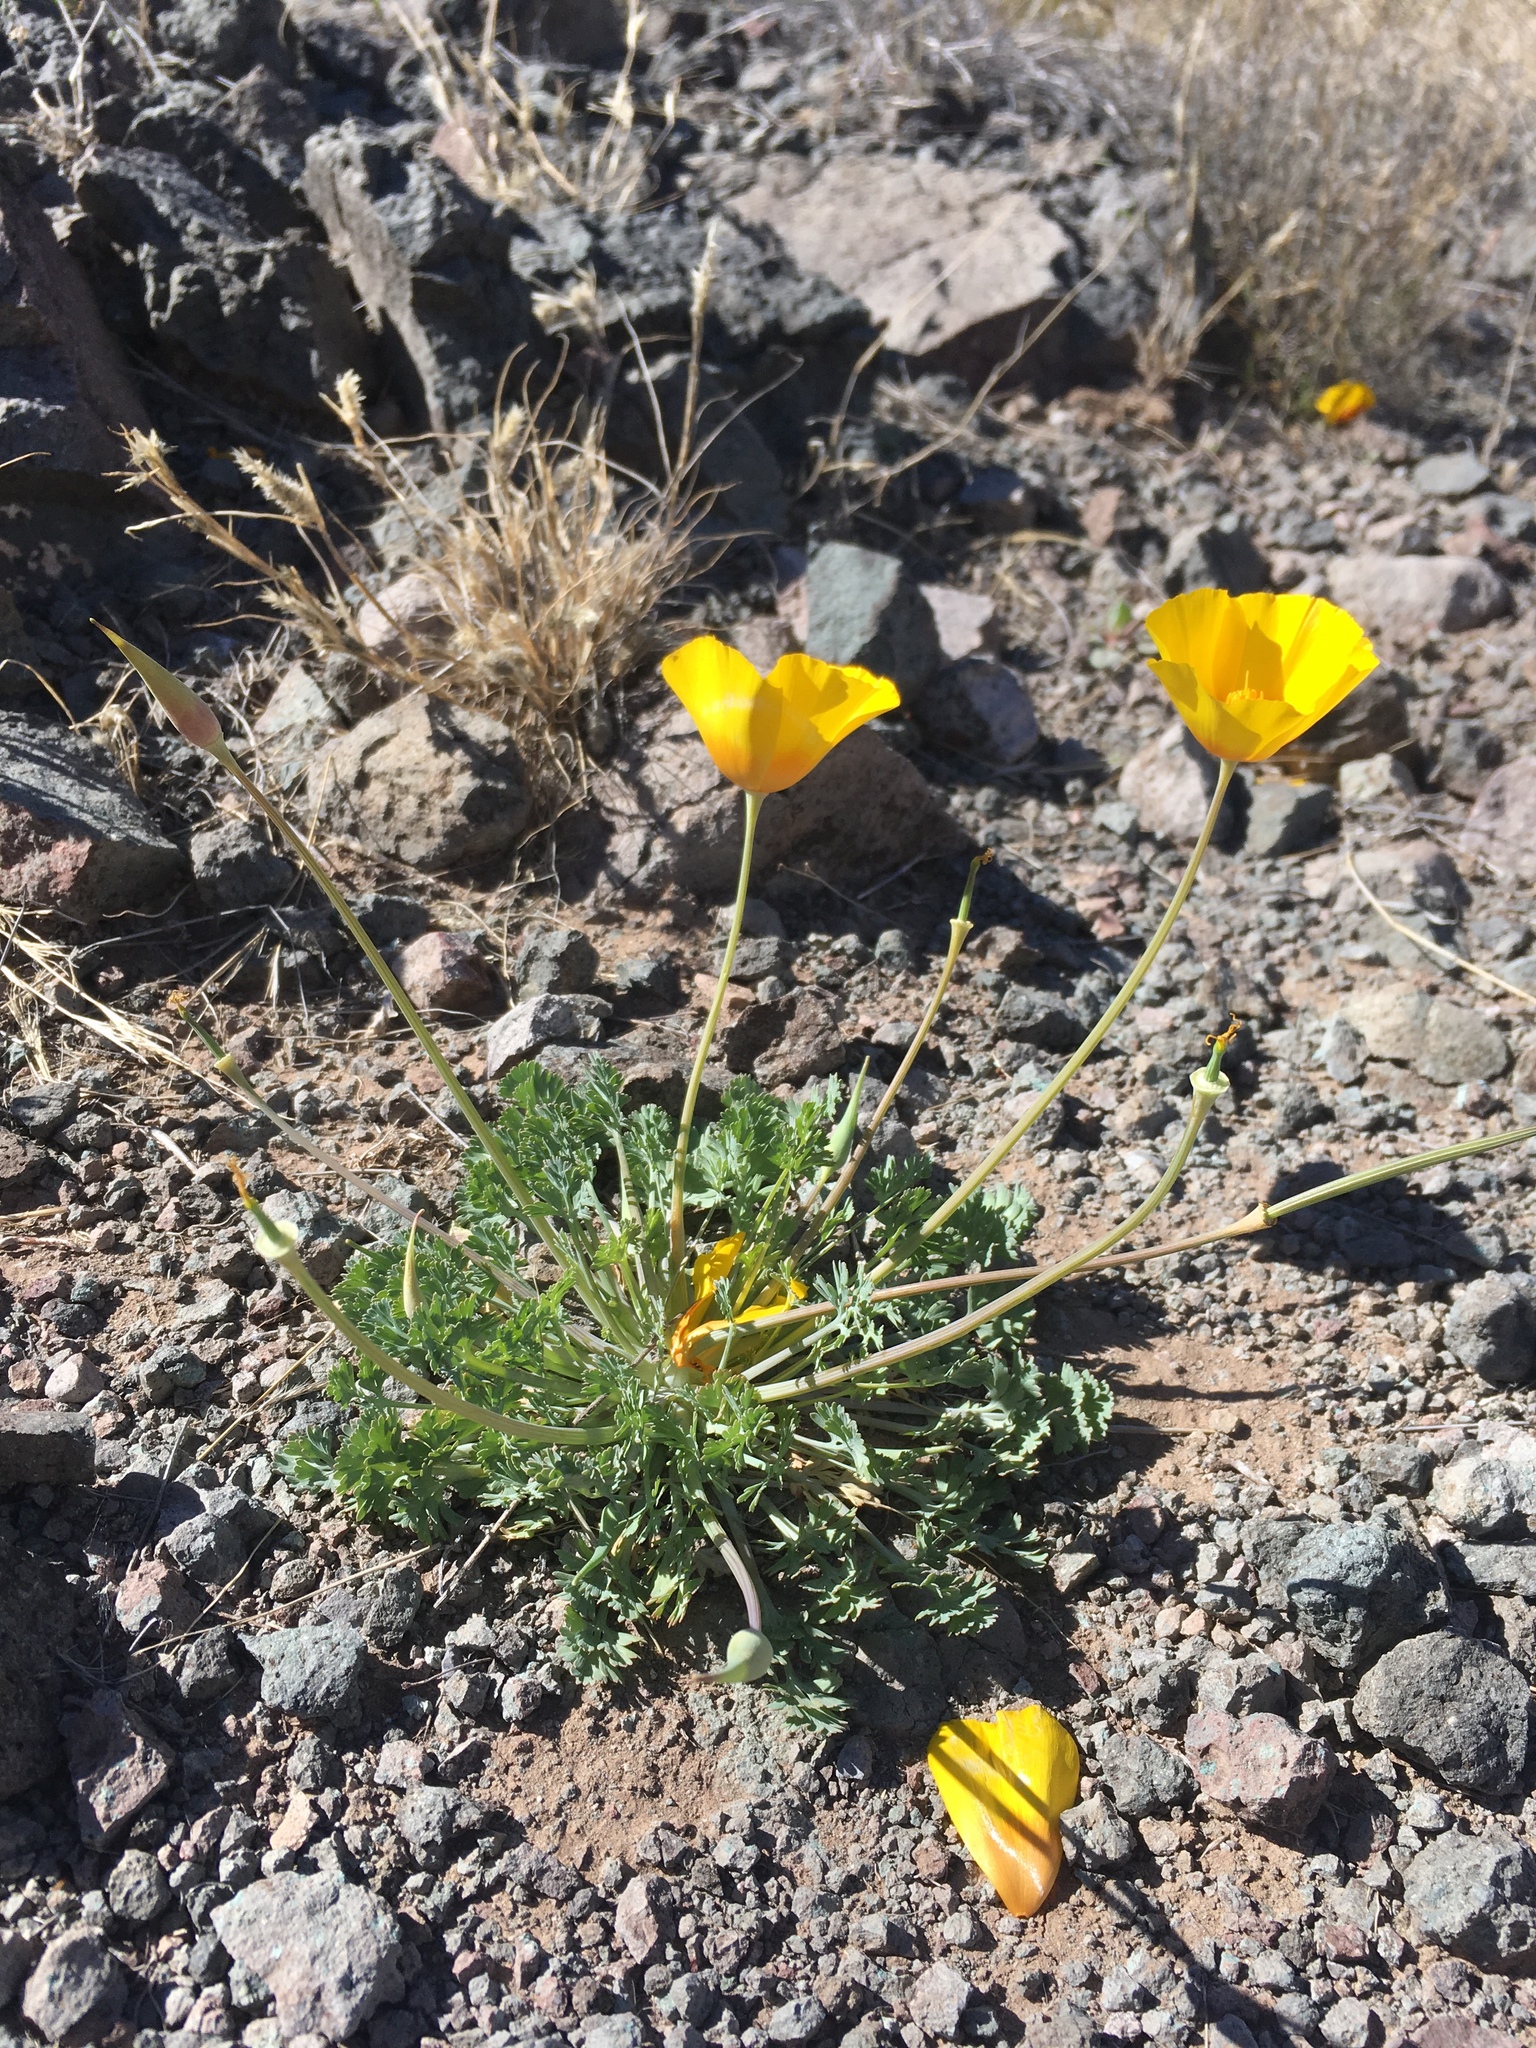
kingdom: Plantae
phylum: Tracheophyta
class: Magnoliopsida
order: Ranunculales
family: Papaveraceae
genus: Eschscholzia
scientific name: Eschscholzia californica
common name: California poppy
